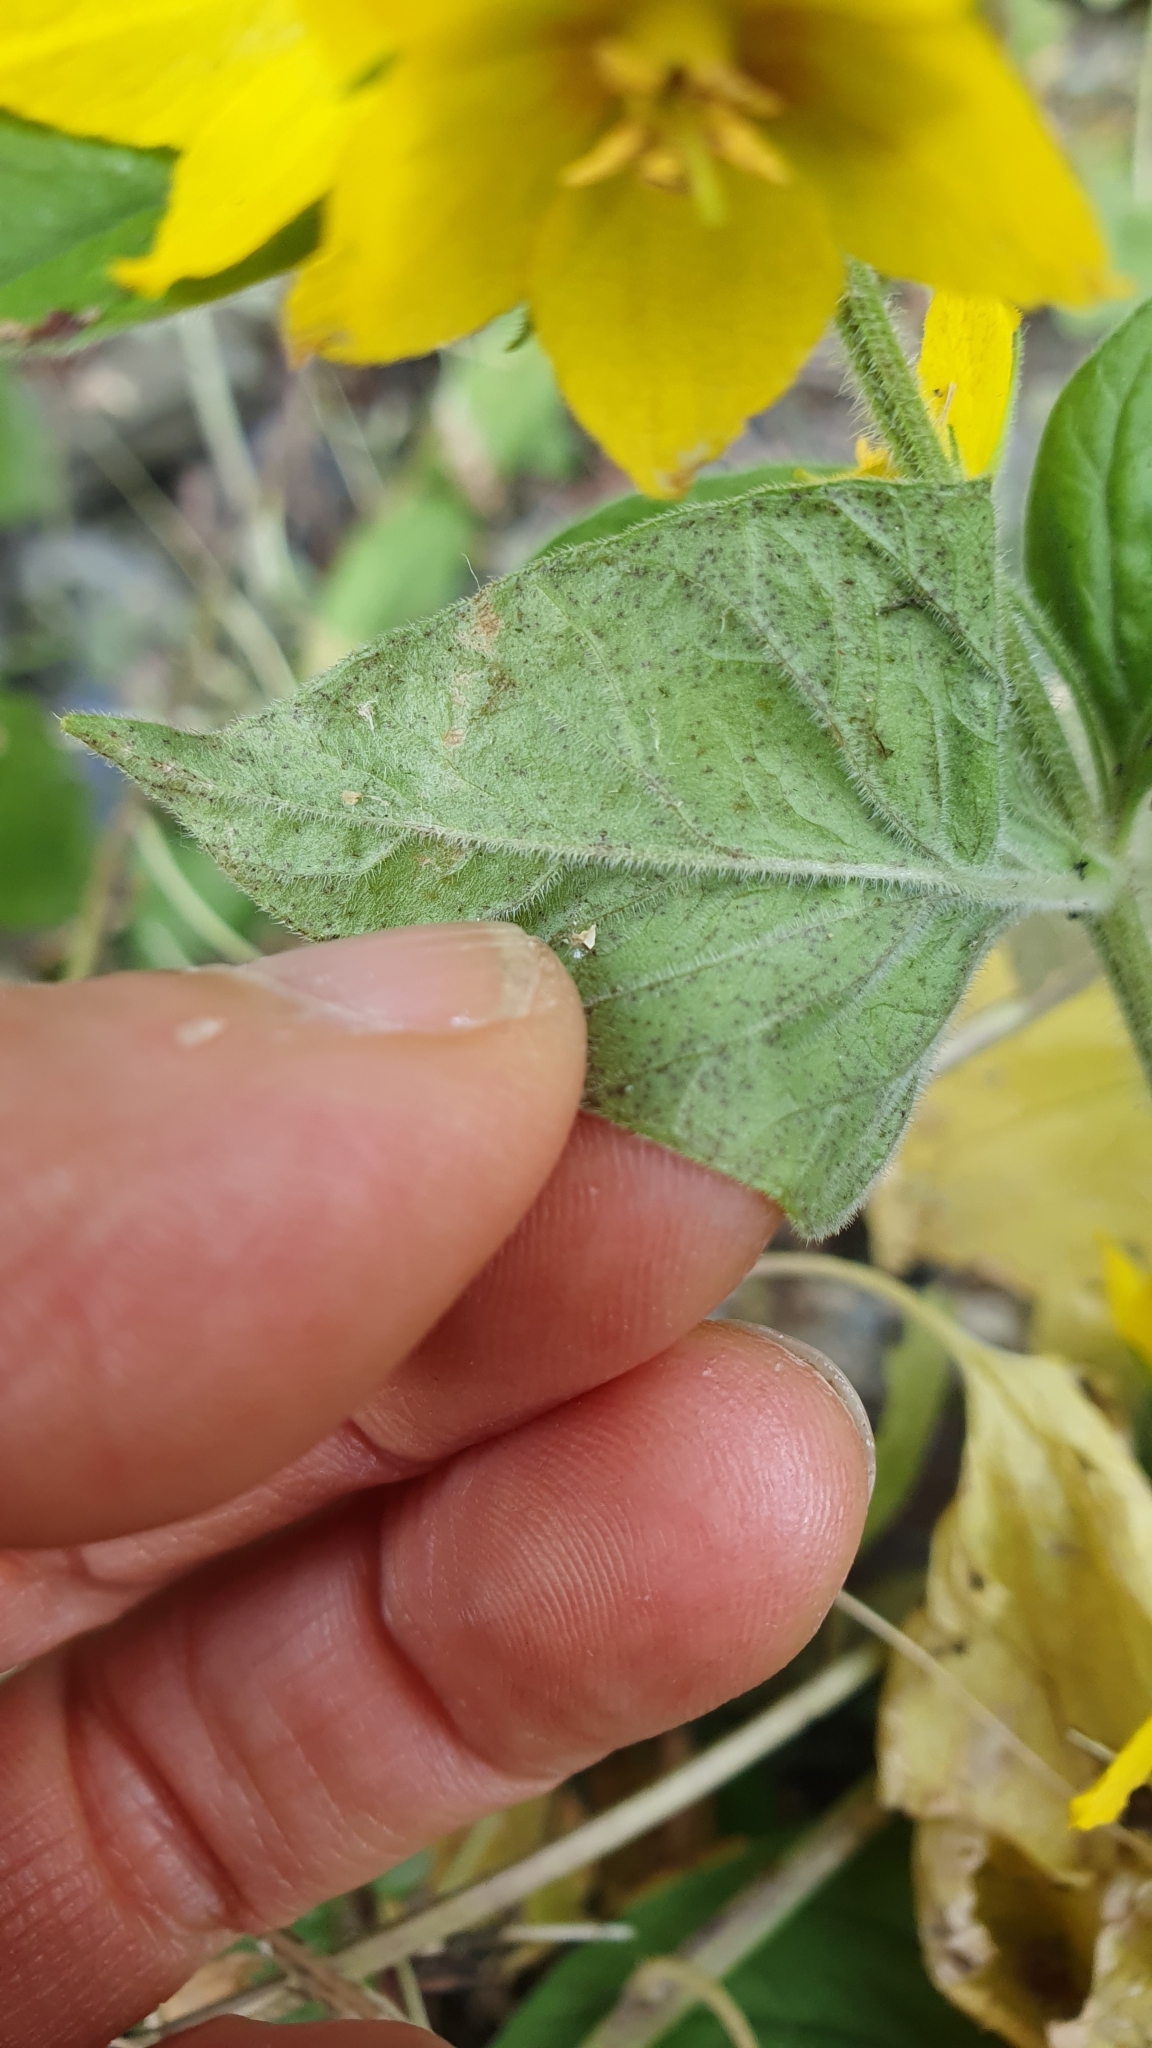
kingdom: Plantae
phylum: Tracheophyta
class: Magnoliopsida
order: Ericales
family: Primulaceae
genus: Lysimachia
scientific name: Lysimachia punctata
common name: Dotted loosestrife
